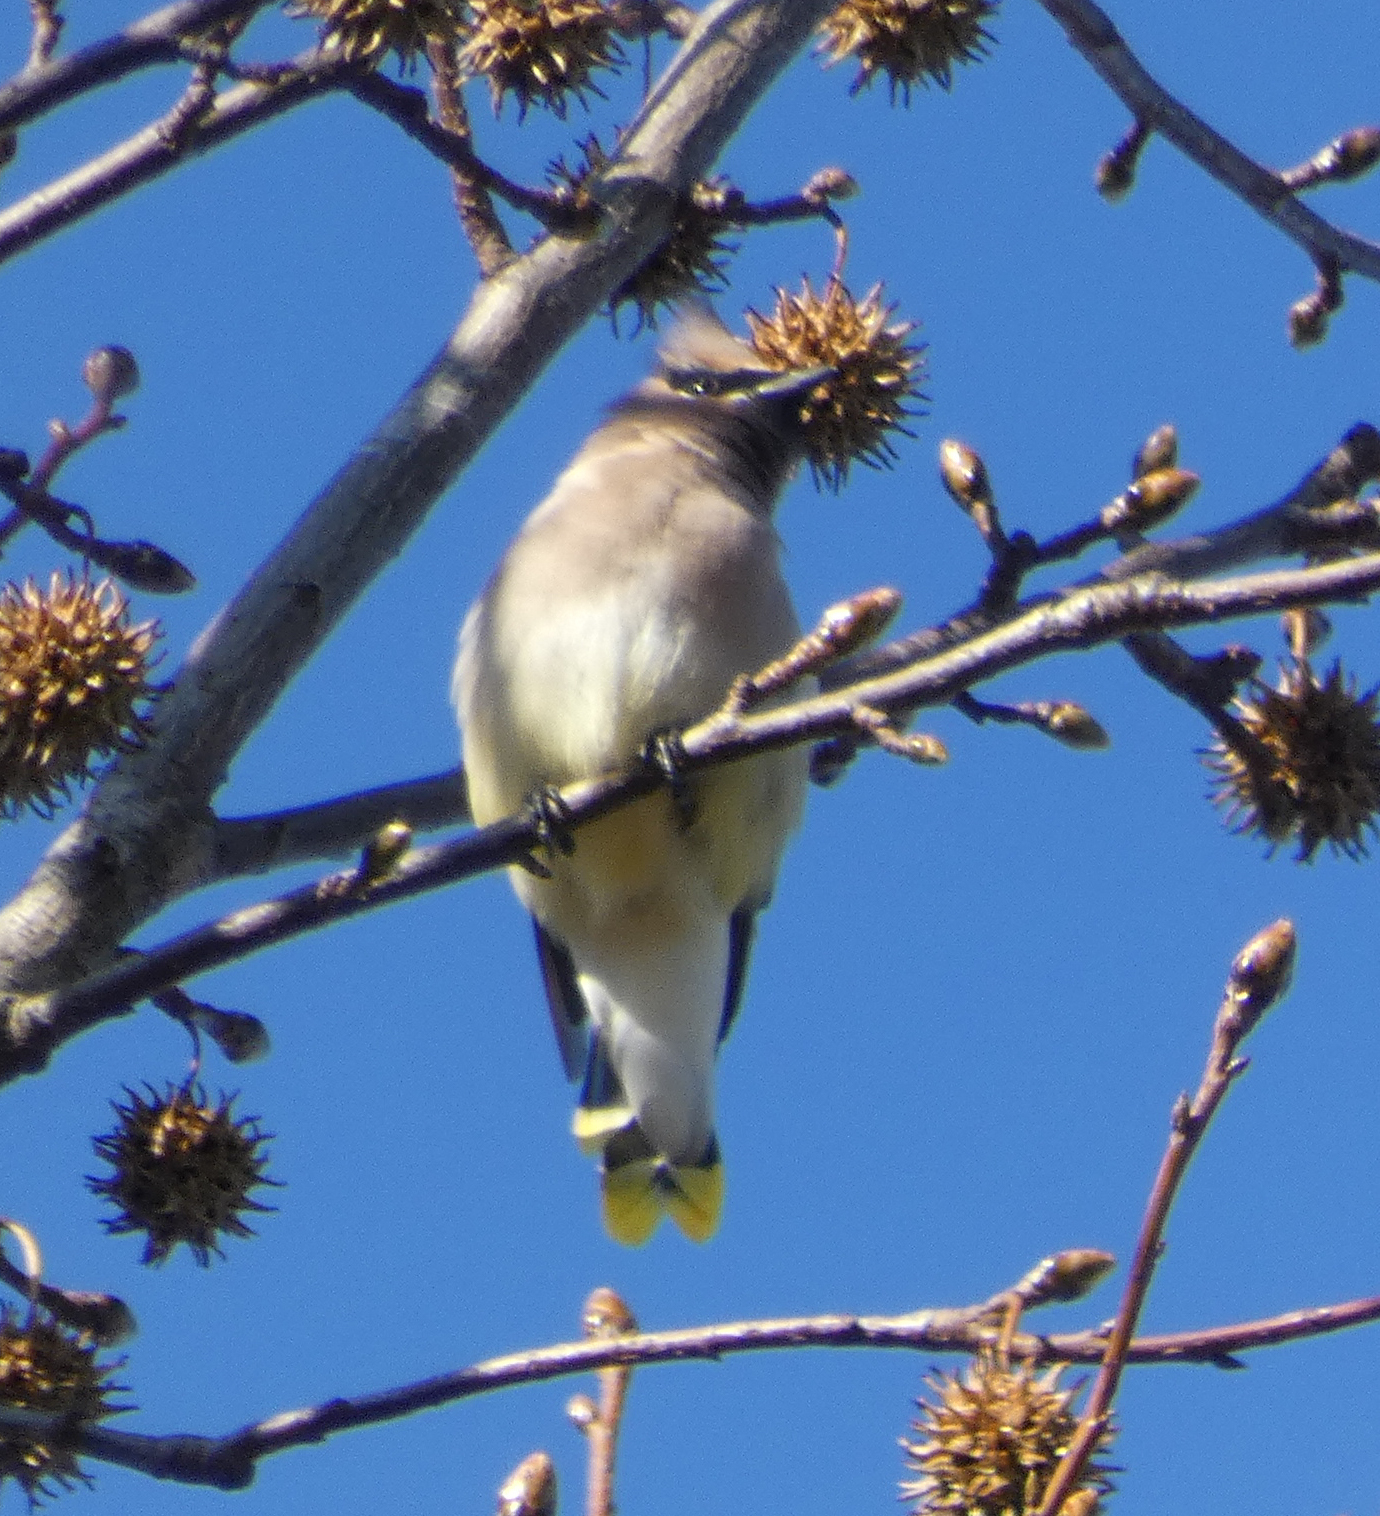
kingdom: Animalia
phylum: Chordata
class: Aves
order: Passeriformes
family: Bombycillidae
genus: Bombycilla
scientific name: Bombycilla cedrorum
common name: Cedar waxwing
